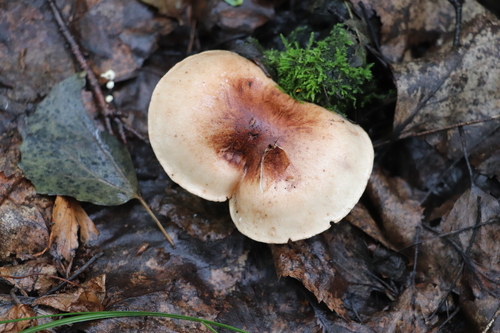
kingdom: Fungi
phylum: Basidiomycota
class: Agaricomycetes
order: Agaricales
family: Tricholomataceae
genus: Tricholoma
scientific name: Tricholoma fulvum
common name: Birch knight
